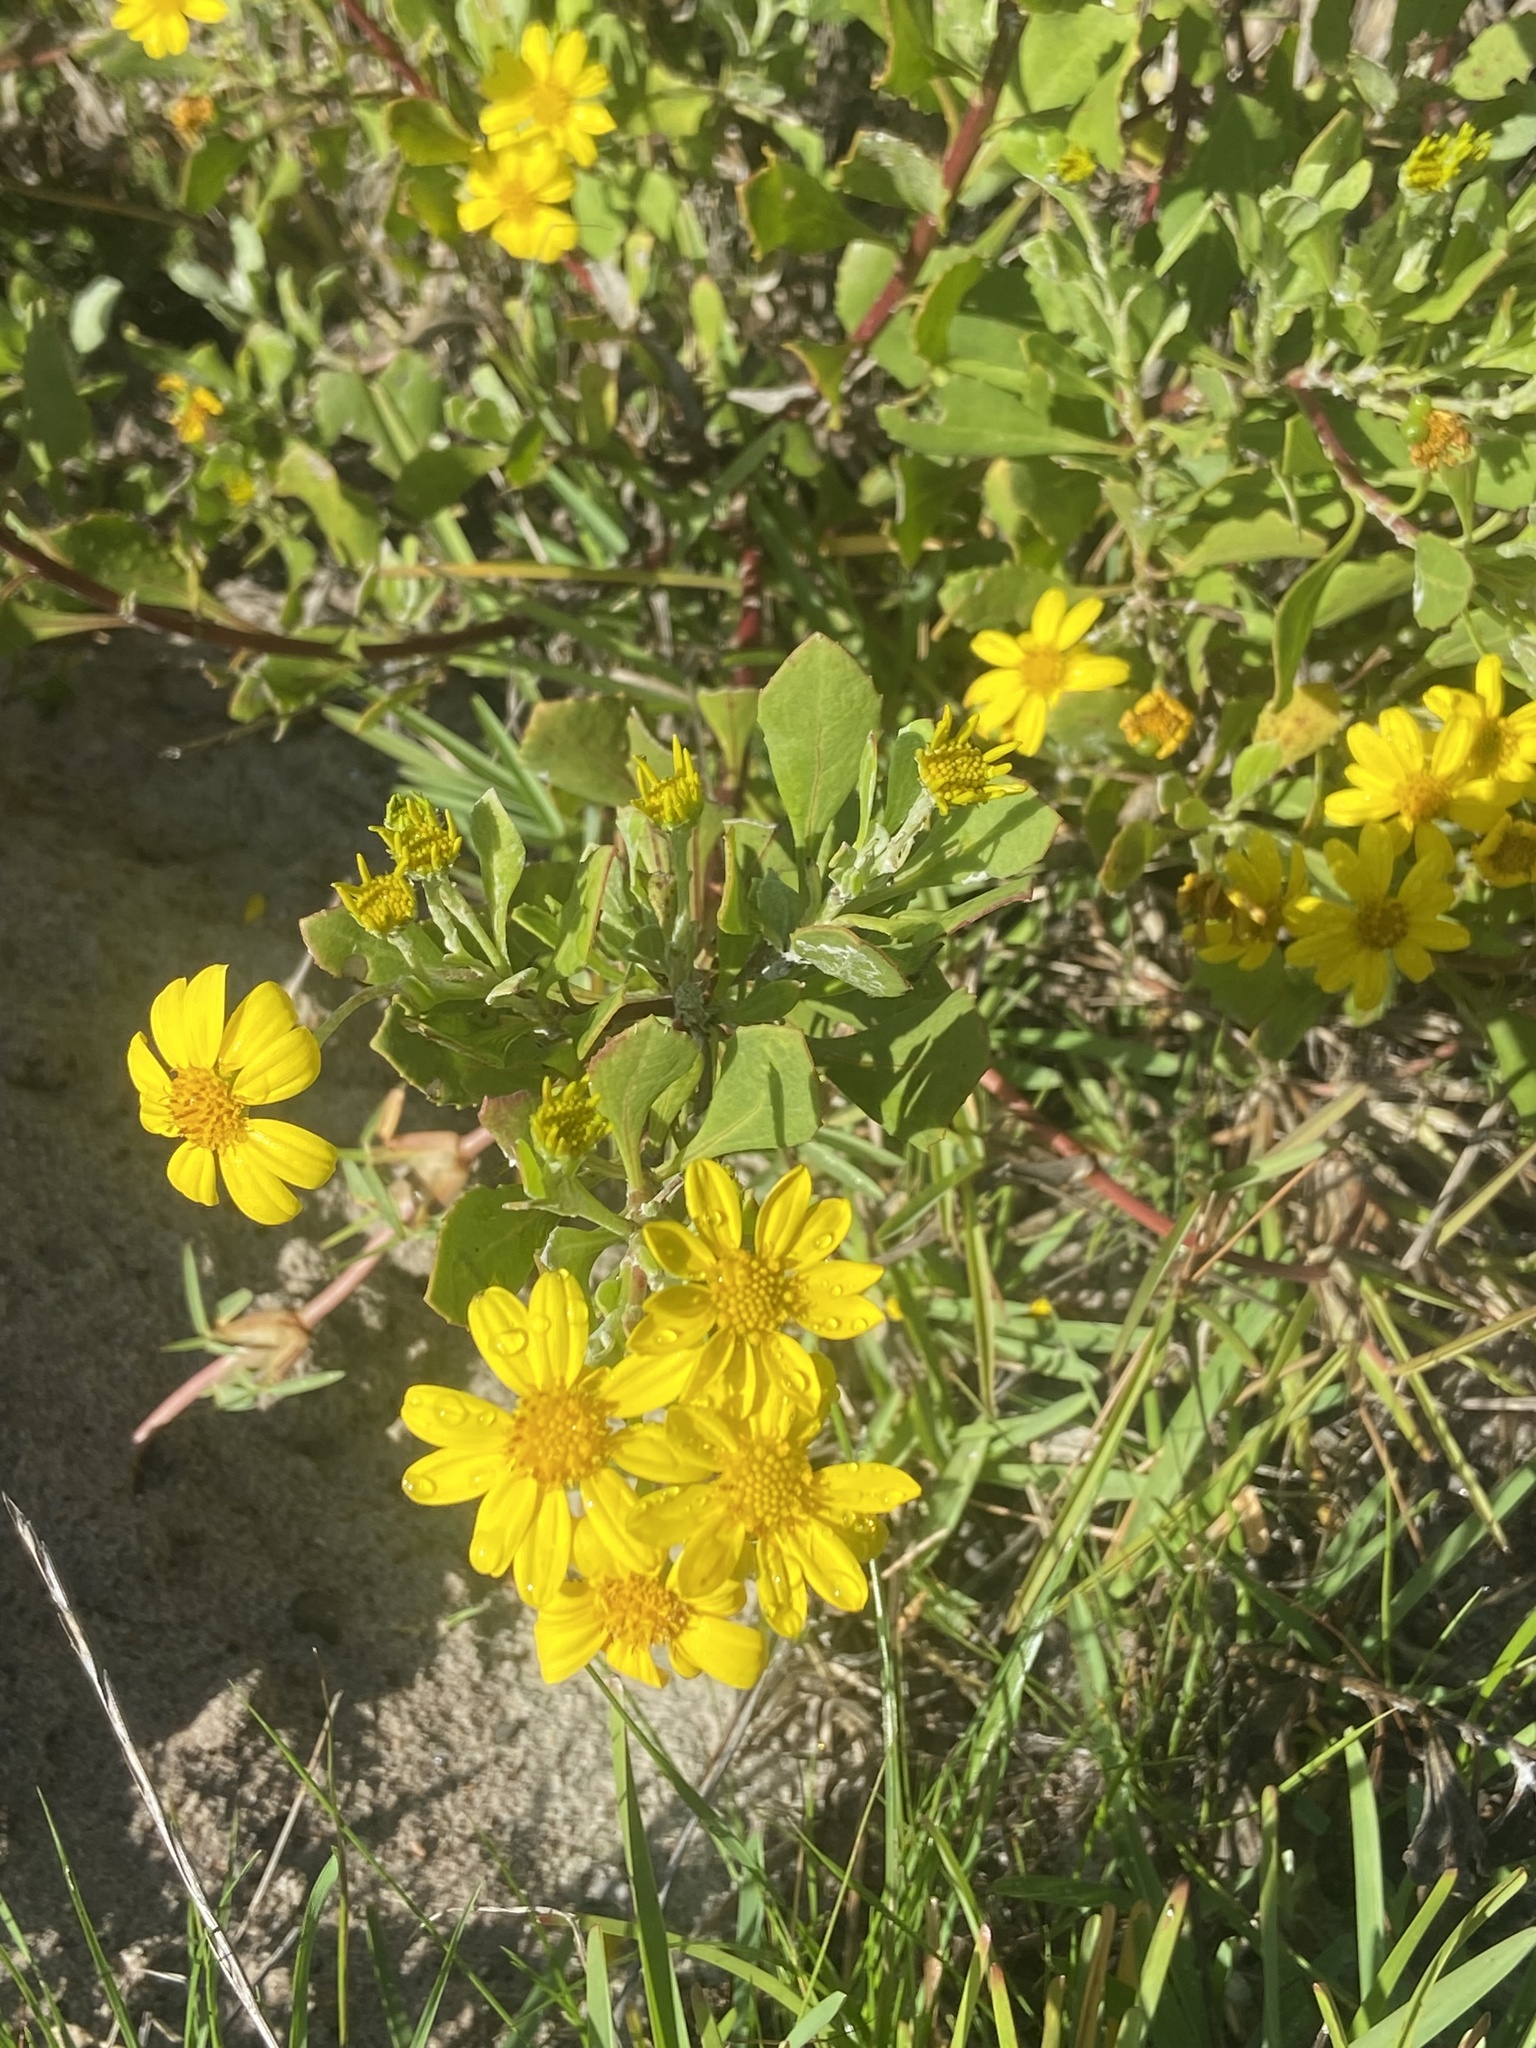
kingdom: Plantae
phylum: Tracheophyta
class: Magnoliopsida
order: Asterales
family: Asteraceae
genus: Osteospermum
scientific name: Osteospermum moniliferum
